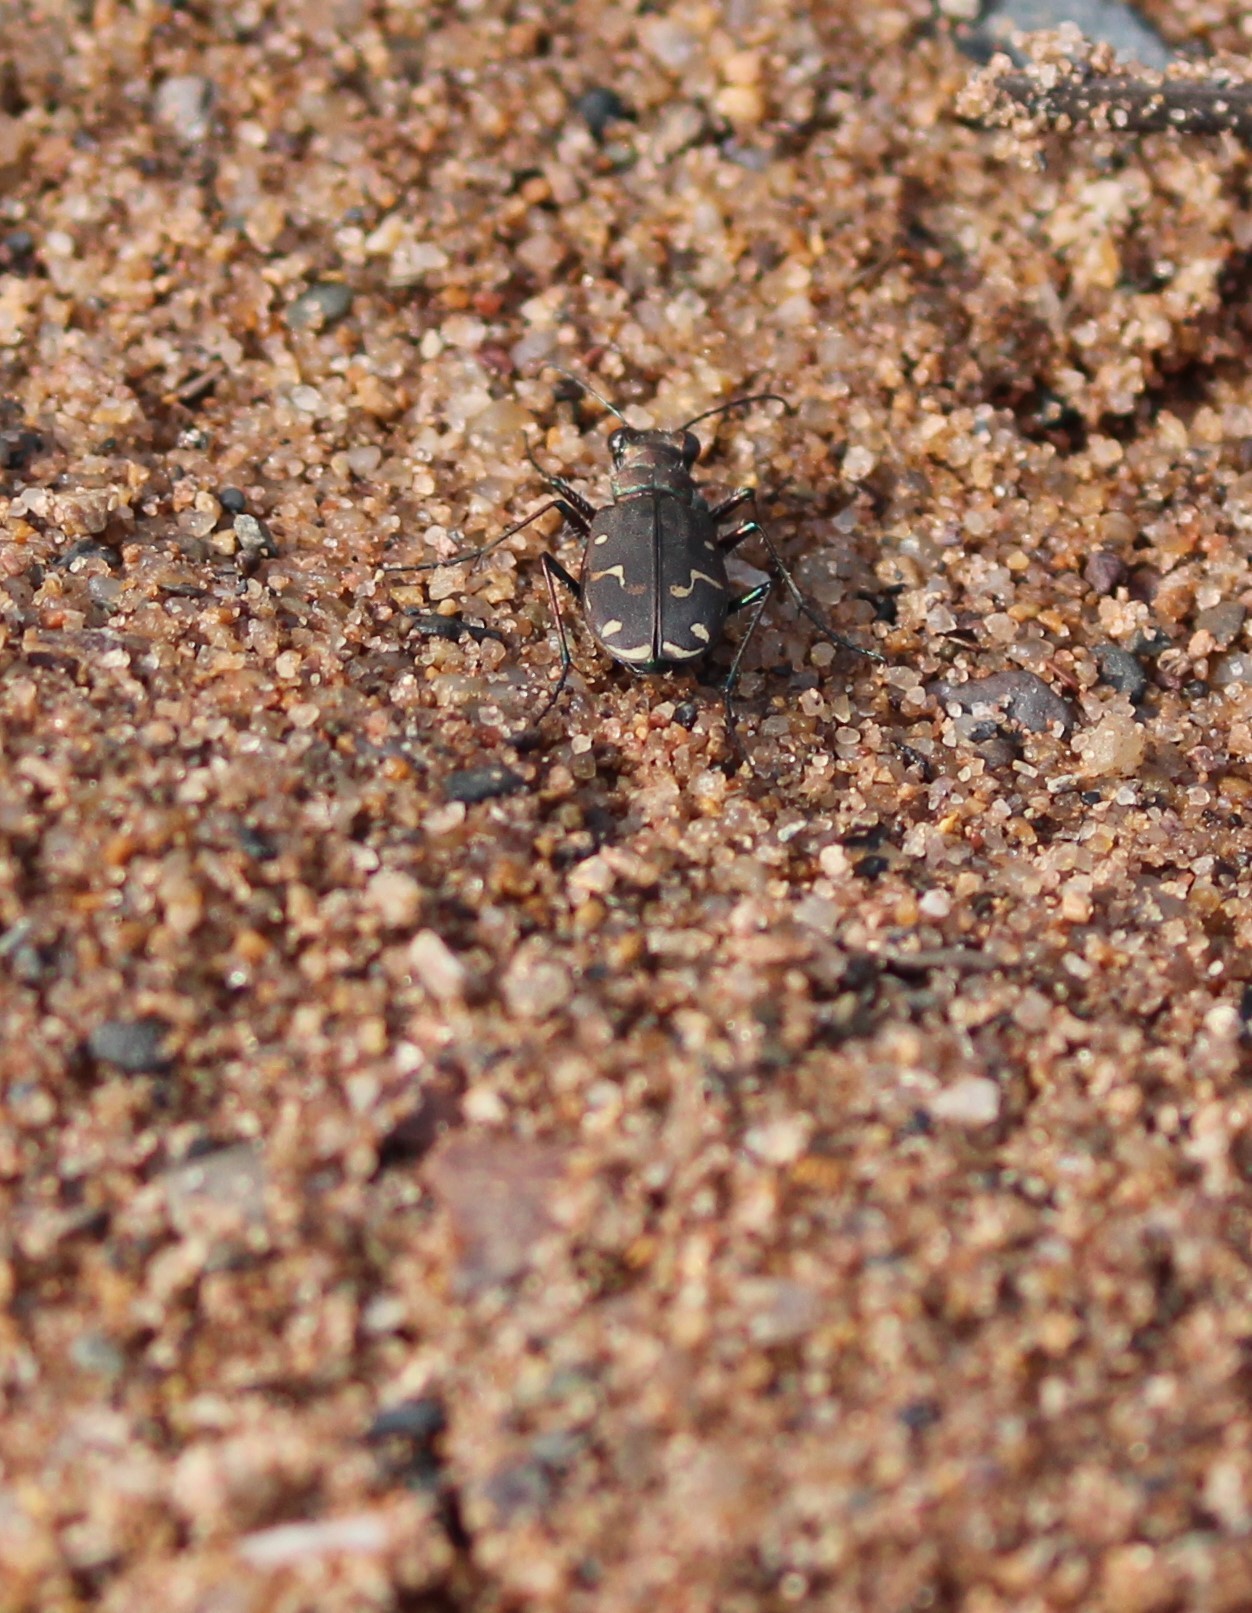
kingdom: Animalia
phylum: Arthropoda
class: Insecta
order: Coleoptera
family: Carabidae
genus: Cicindela
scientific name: Cicindela duodecimguttata
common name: Twelve-spotted tiger beetle
